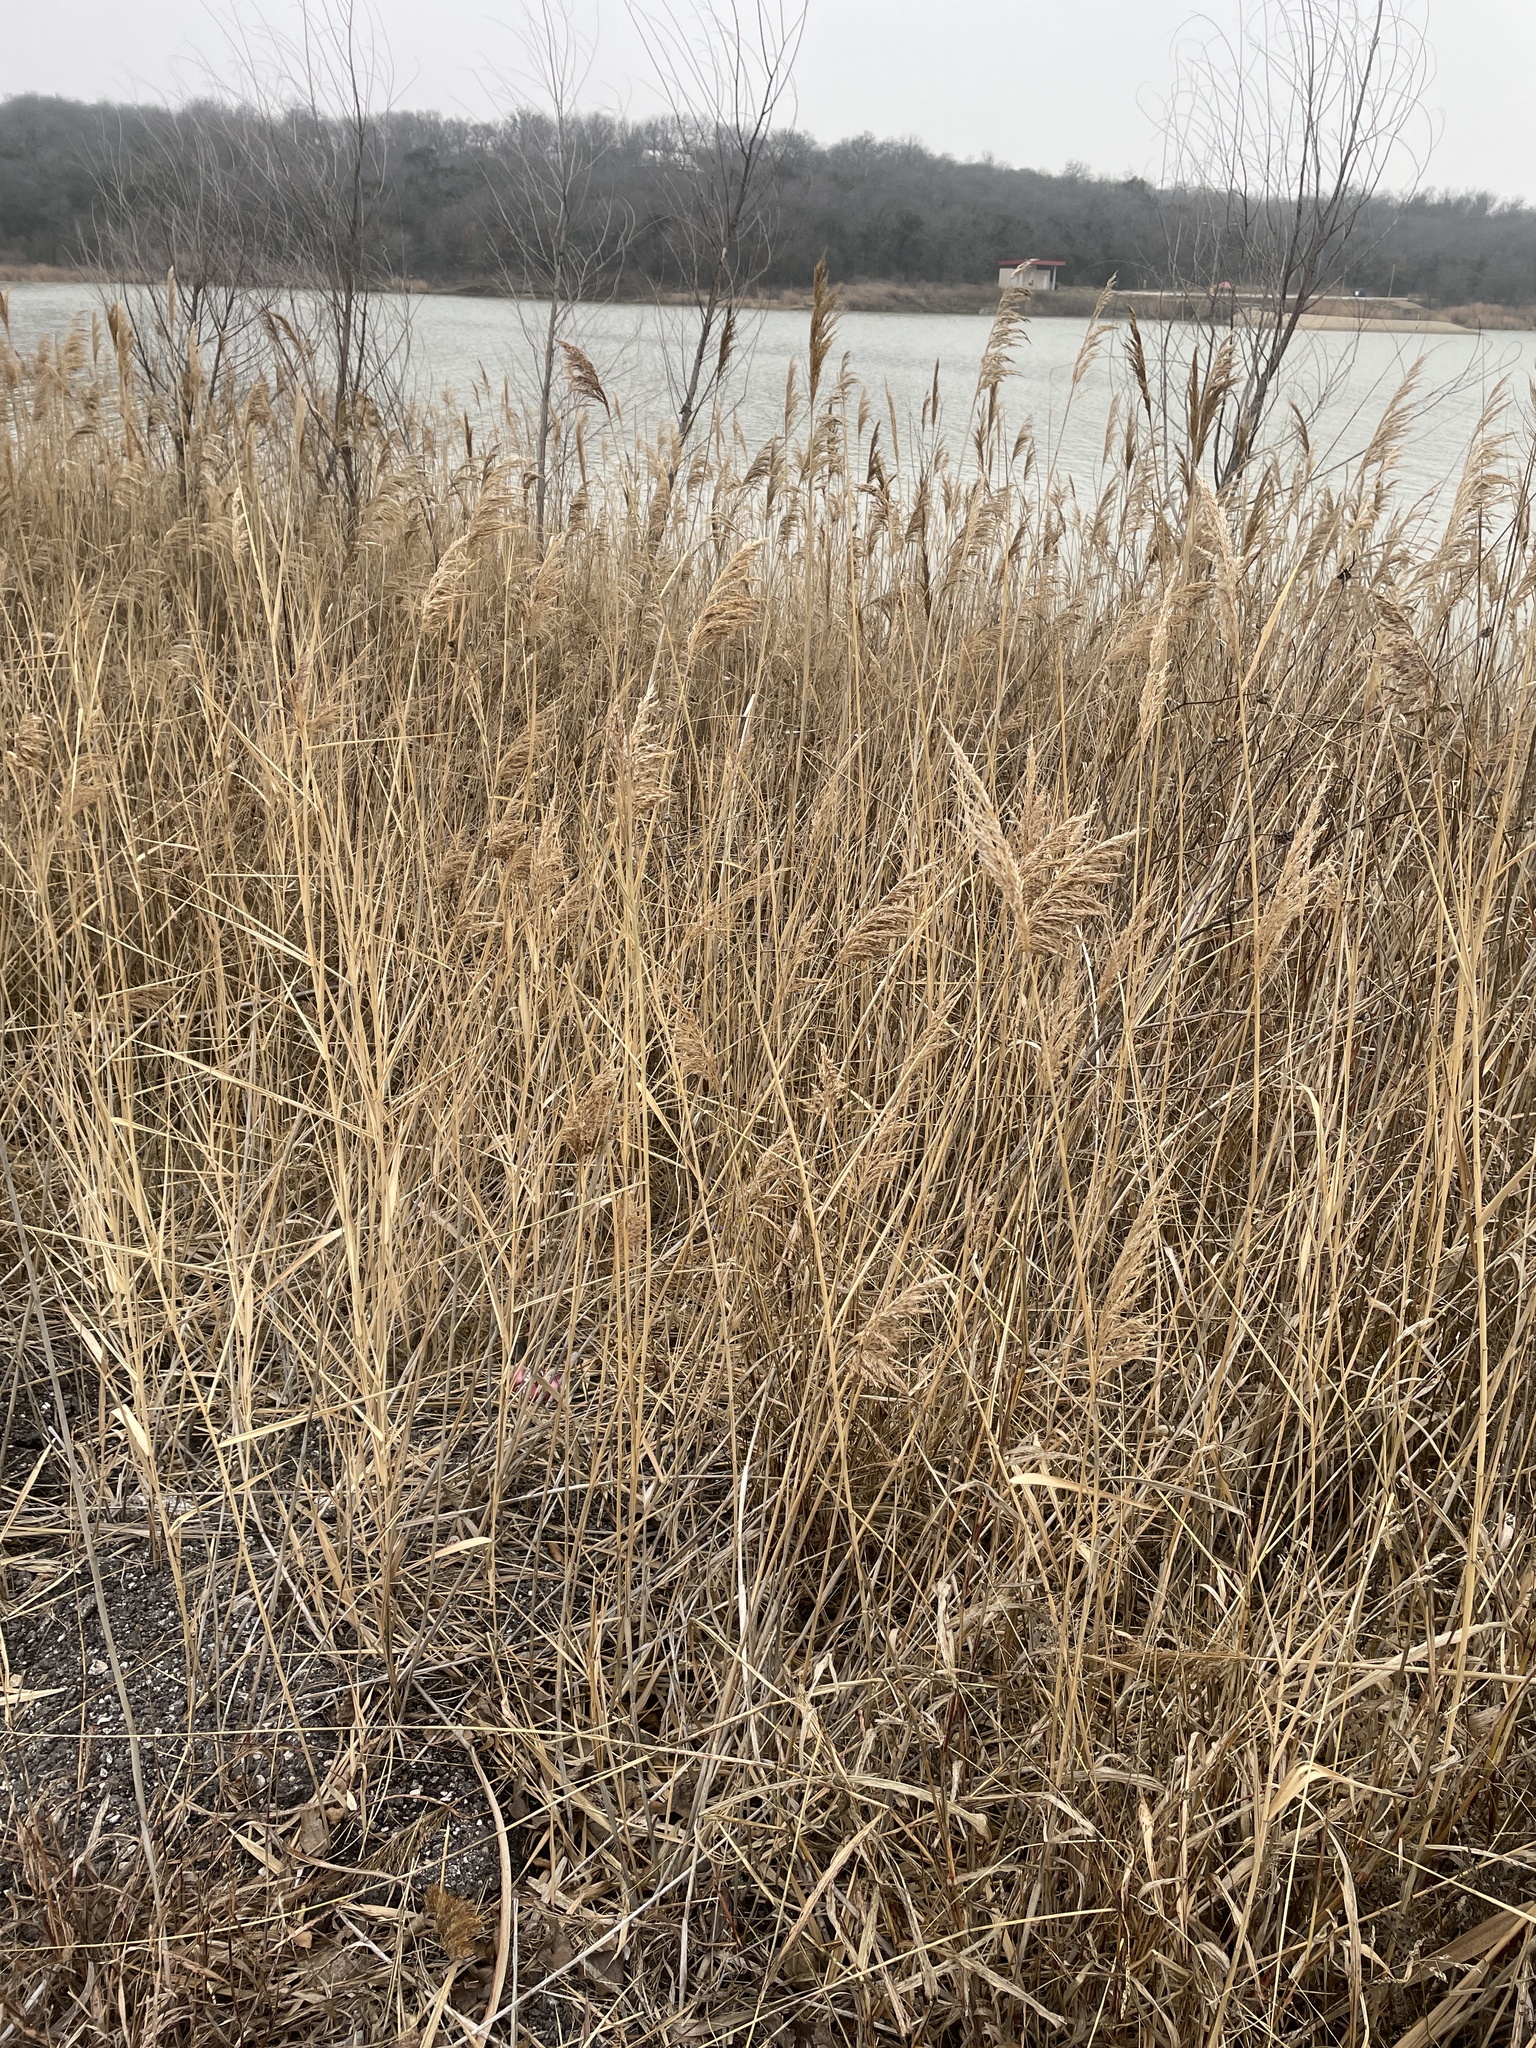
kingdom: Plantae
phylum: Tracheophyta
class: Liliopsida
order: Poales
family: Poaceae
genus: Phragmites
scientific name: Phragmites australis
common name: Common reed
